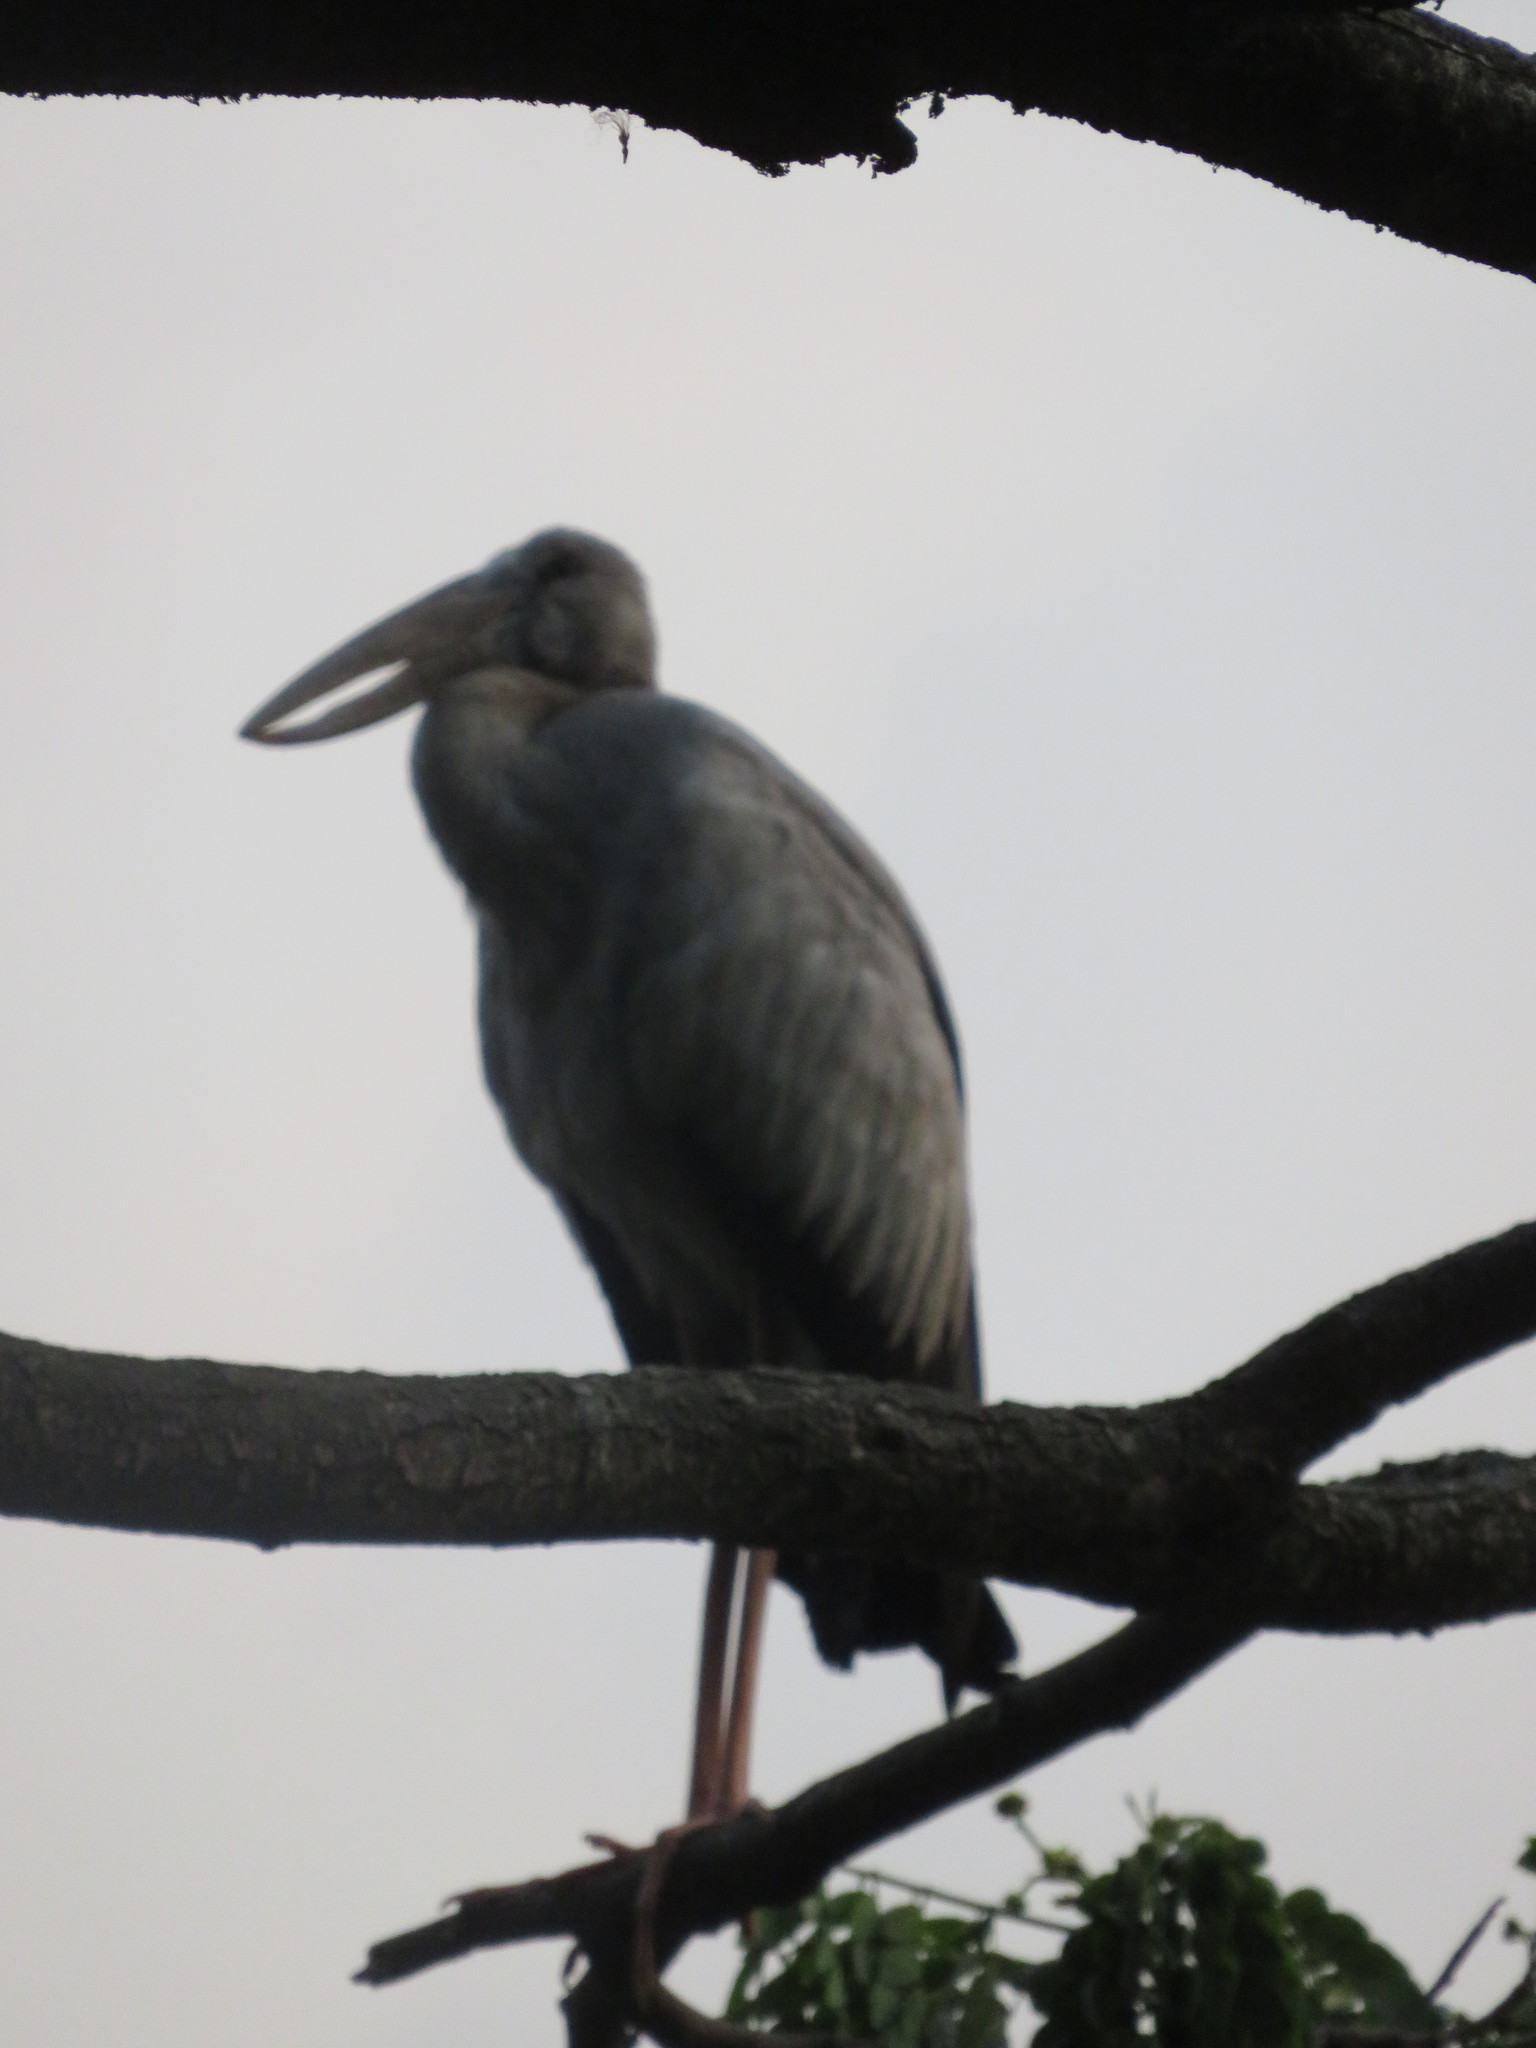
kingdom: Animalia
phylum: Chordata
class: Aves
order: Ciconiiformes
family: Ciconiidae
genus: Anastomus
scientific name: Anastomus oscitans
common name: Asian openbill
